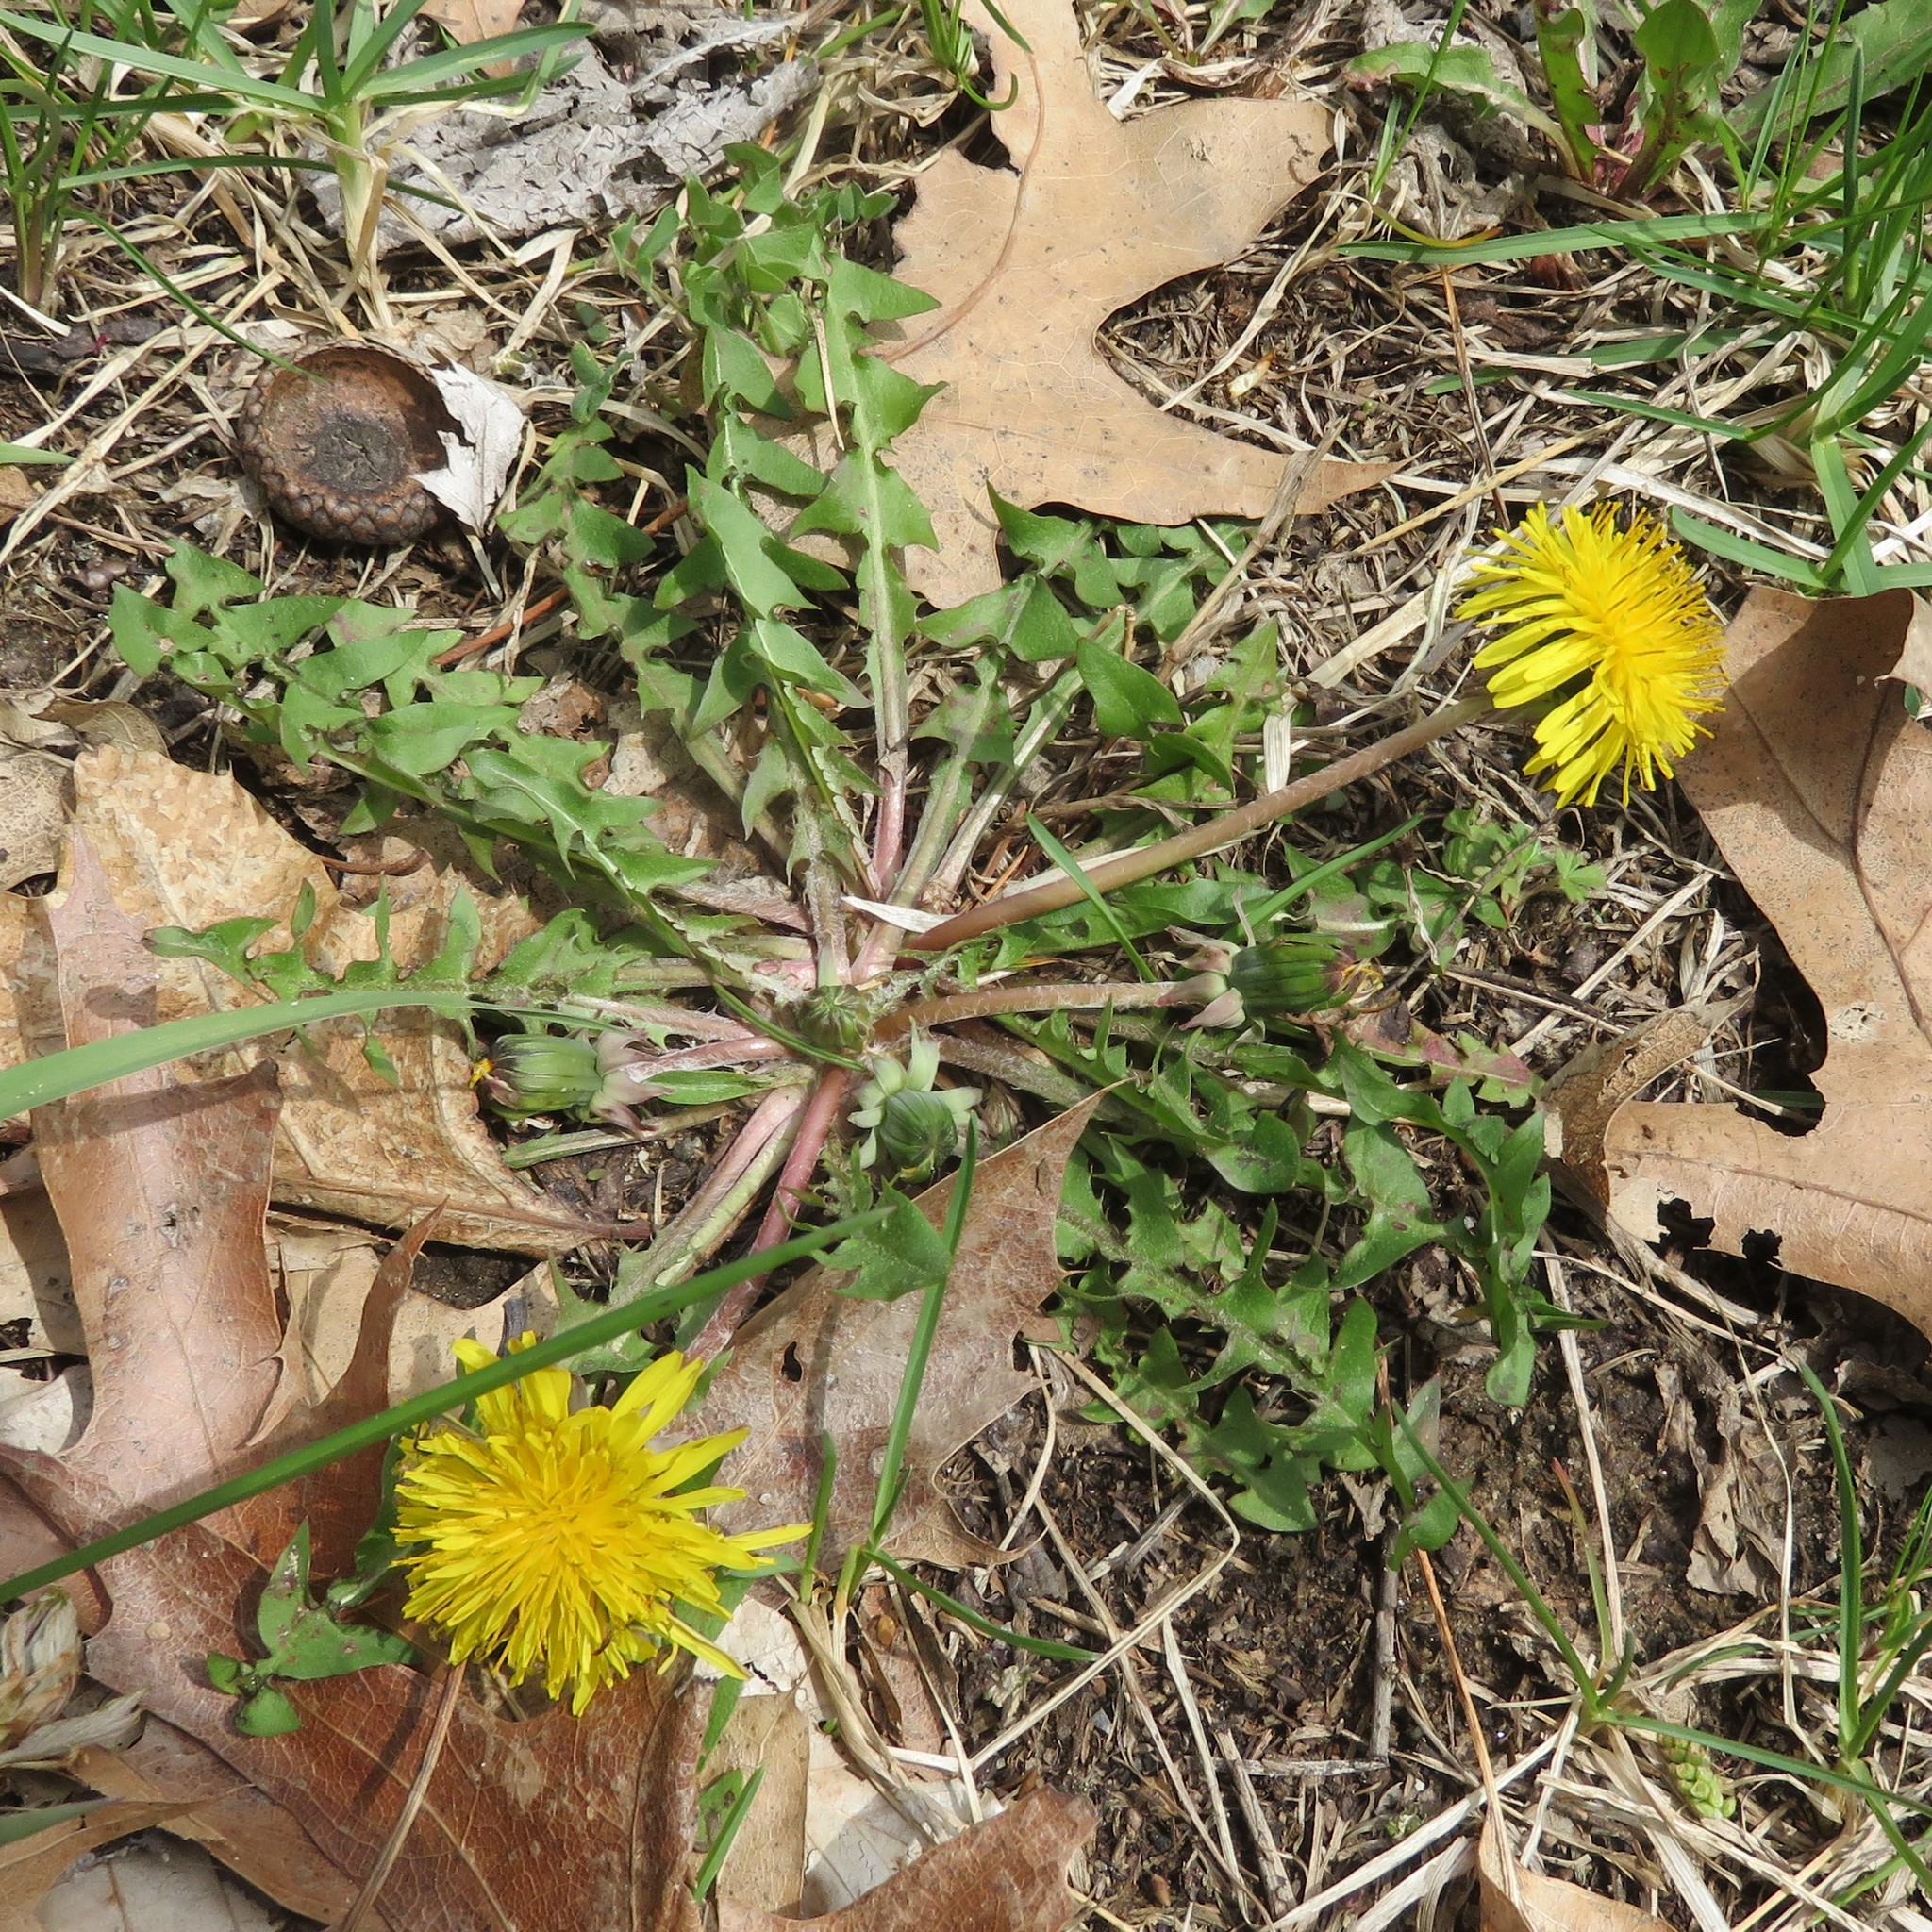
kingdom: Plantae
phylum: Tracheophyta
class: Magnoliopsida
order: Asterales
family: Asteraceae
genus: Taraxacum
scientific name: Taraxacum officinale
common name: Common dandelion
